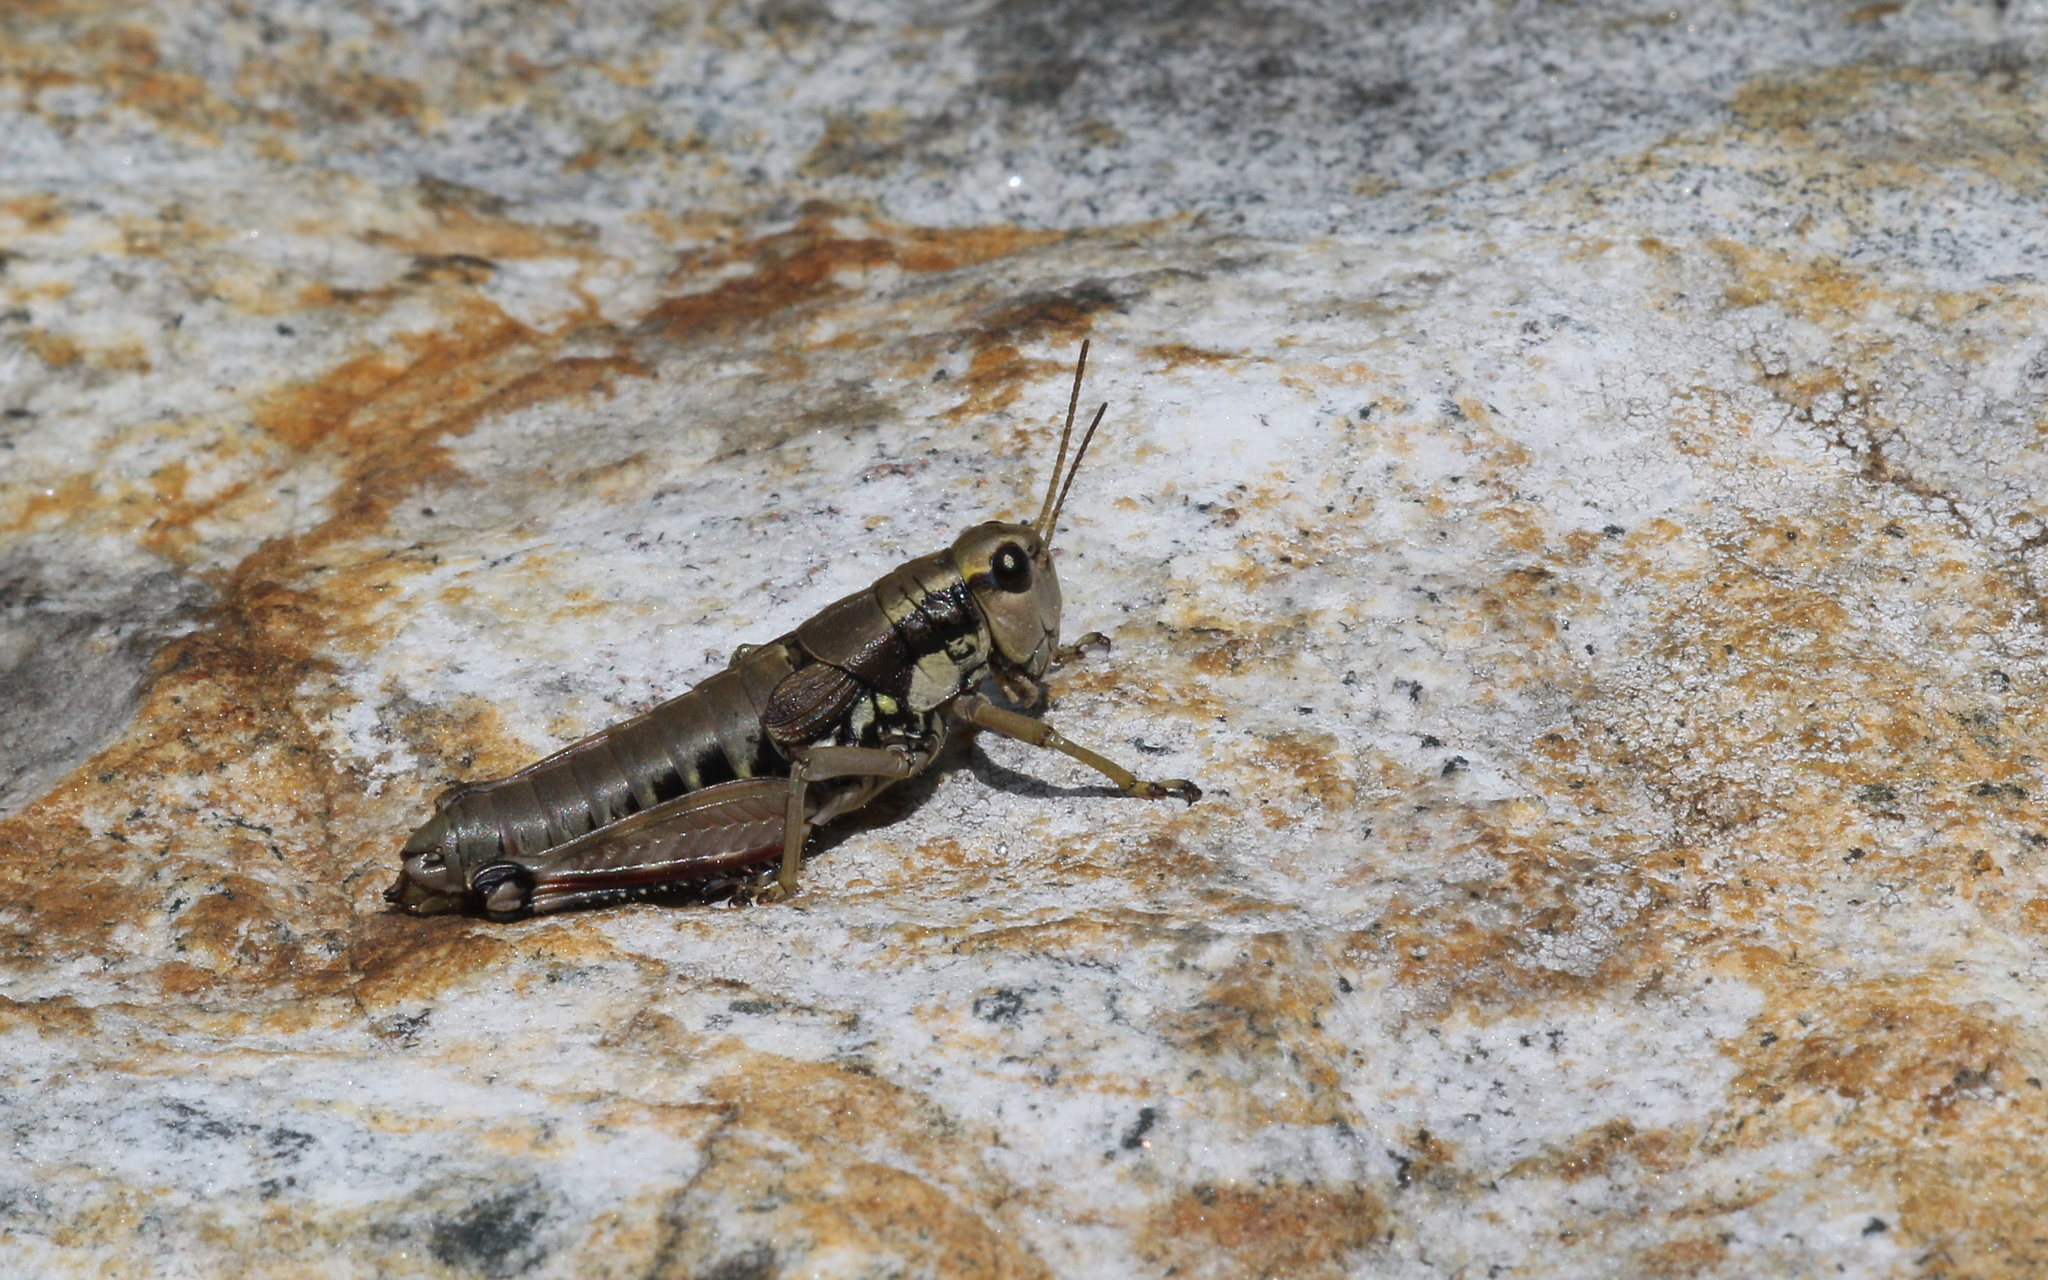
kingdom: Animalia
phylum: Arthropoda
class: Insecta
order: Orthoptera
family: Acrididae
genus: Podisma
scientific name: Podisma pedestris
